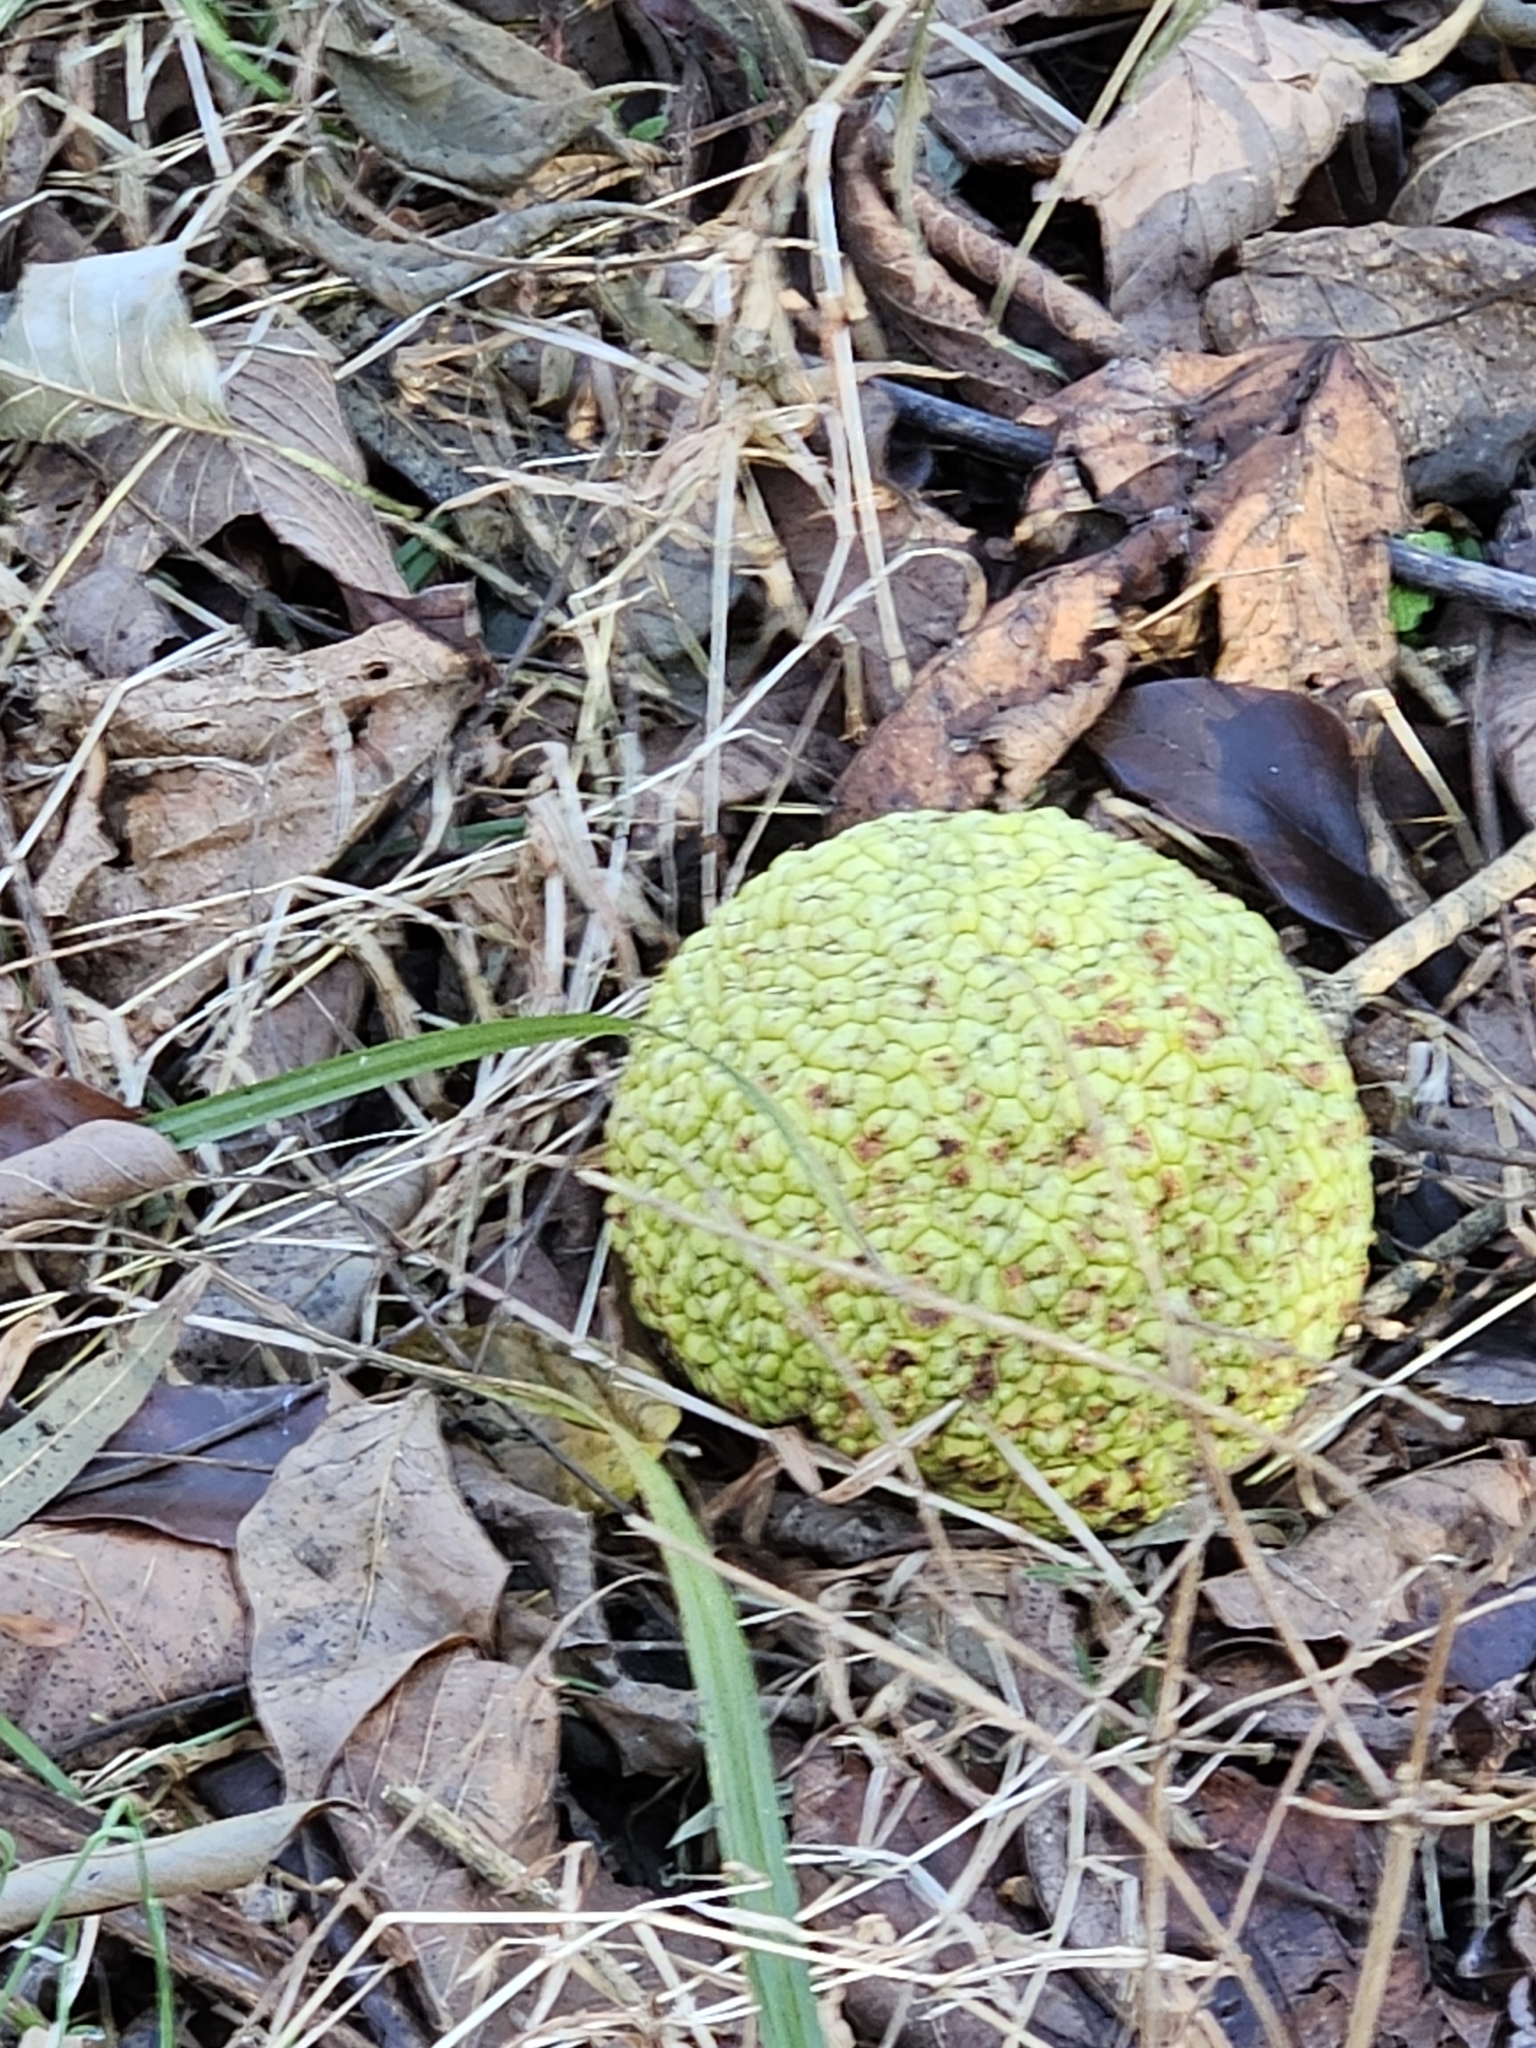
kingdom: Plantae
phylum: Tracheophyta
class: Magnoliopsida
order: Rosales
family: Moraceae
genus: Maclura
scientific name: Maclura pomifera
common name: Osage-orange
